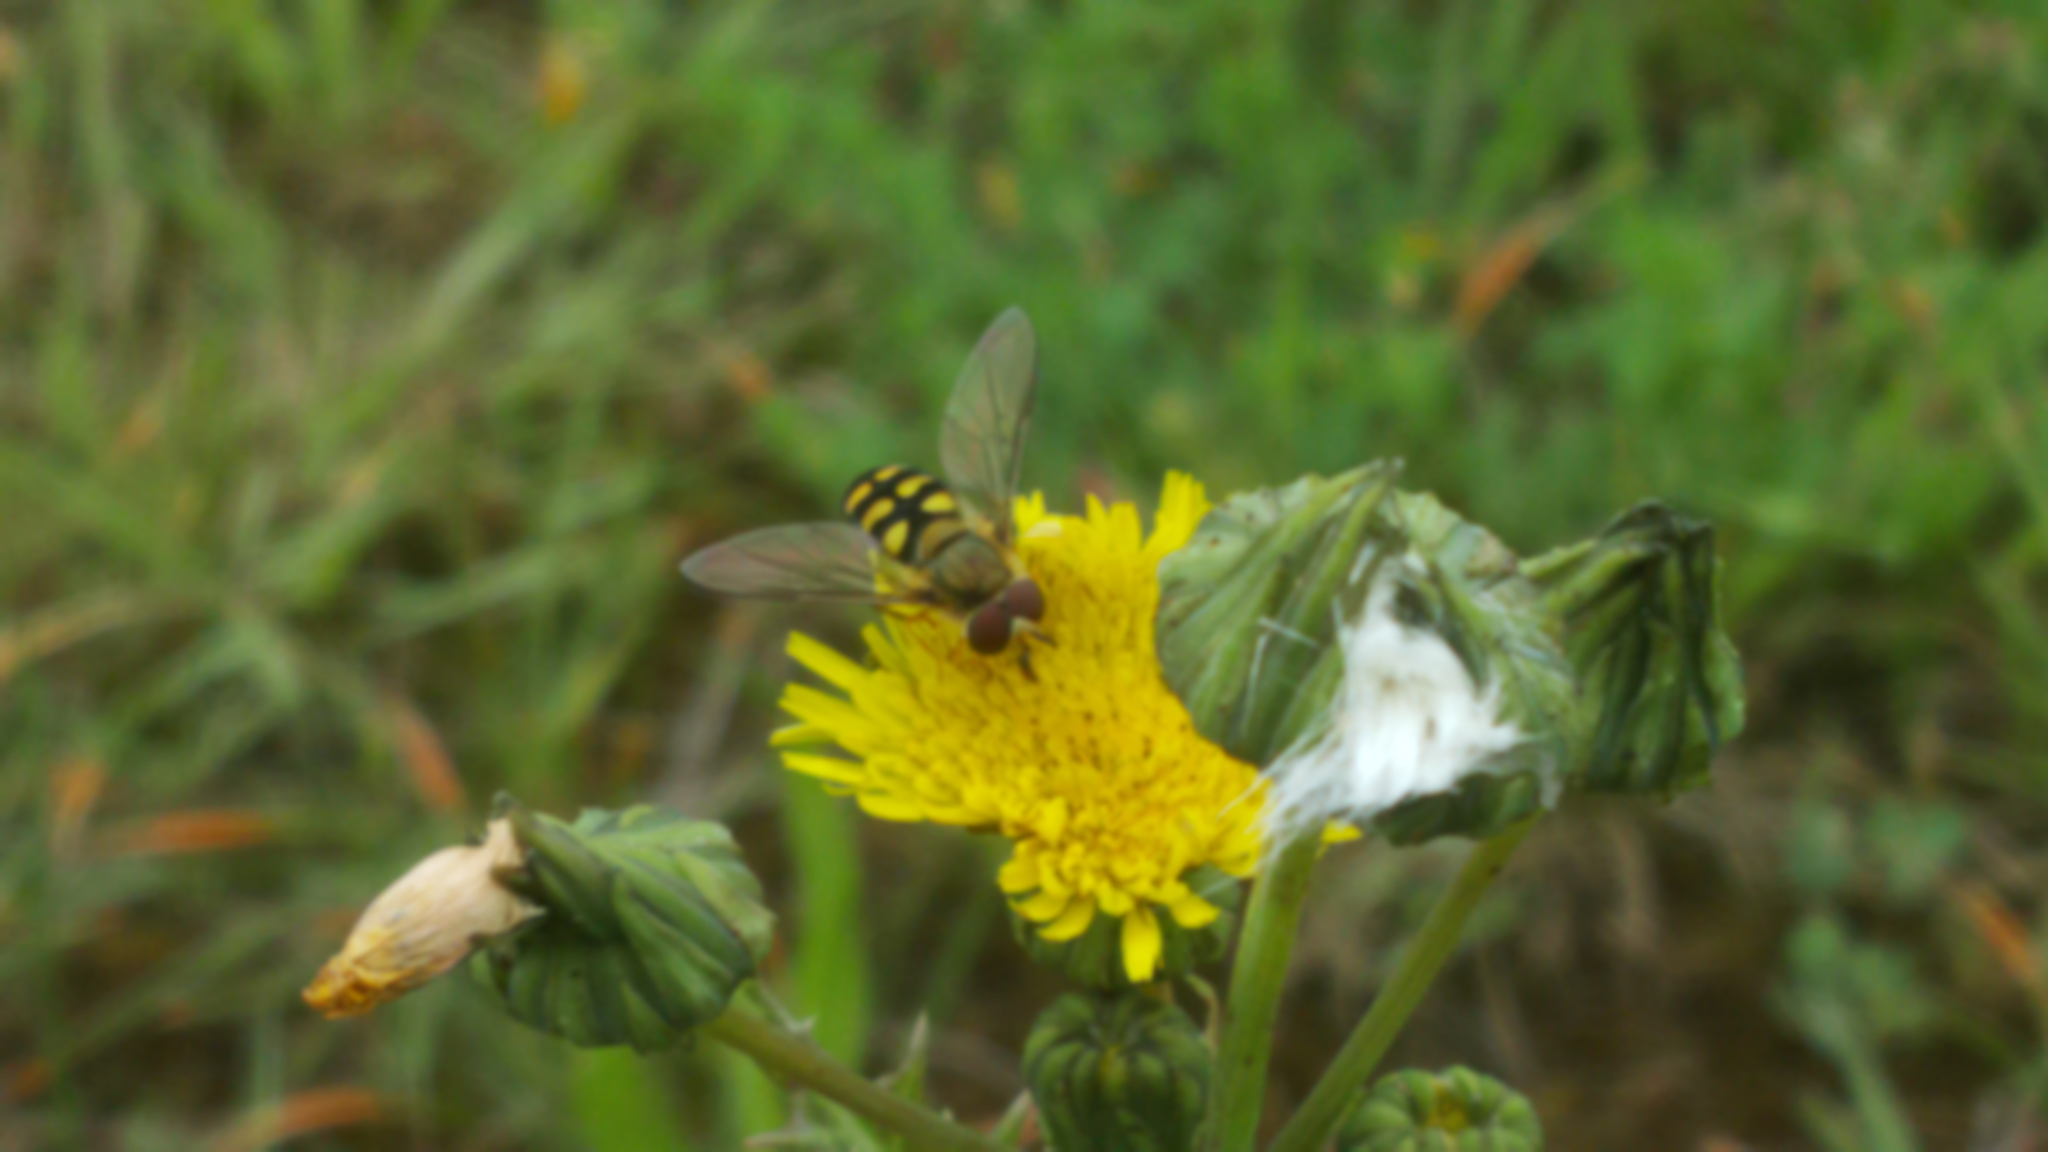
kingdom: Animalia
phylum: Arthropoda
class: Insecta
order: Diptera
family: Syrphidae
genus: Eupeodes
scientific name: Eupeodes
